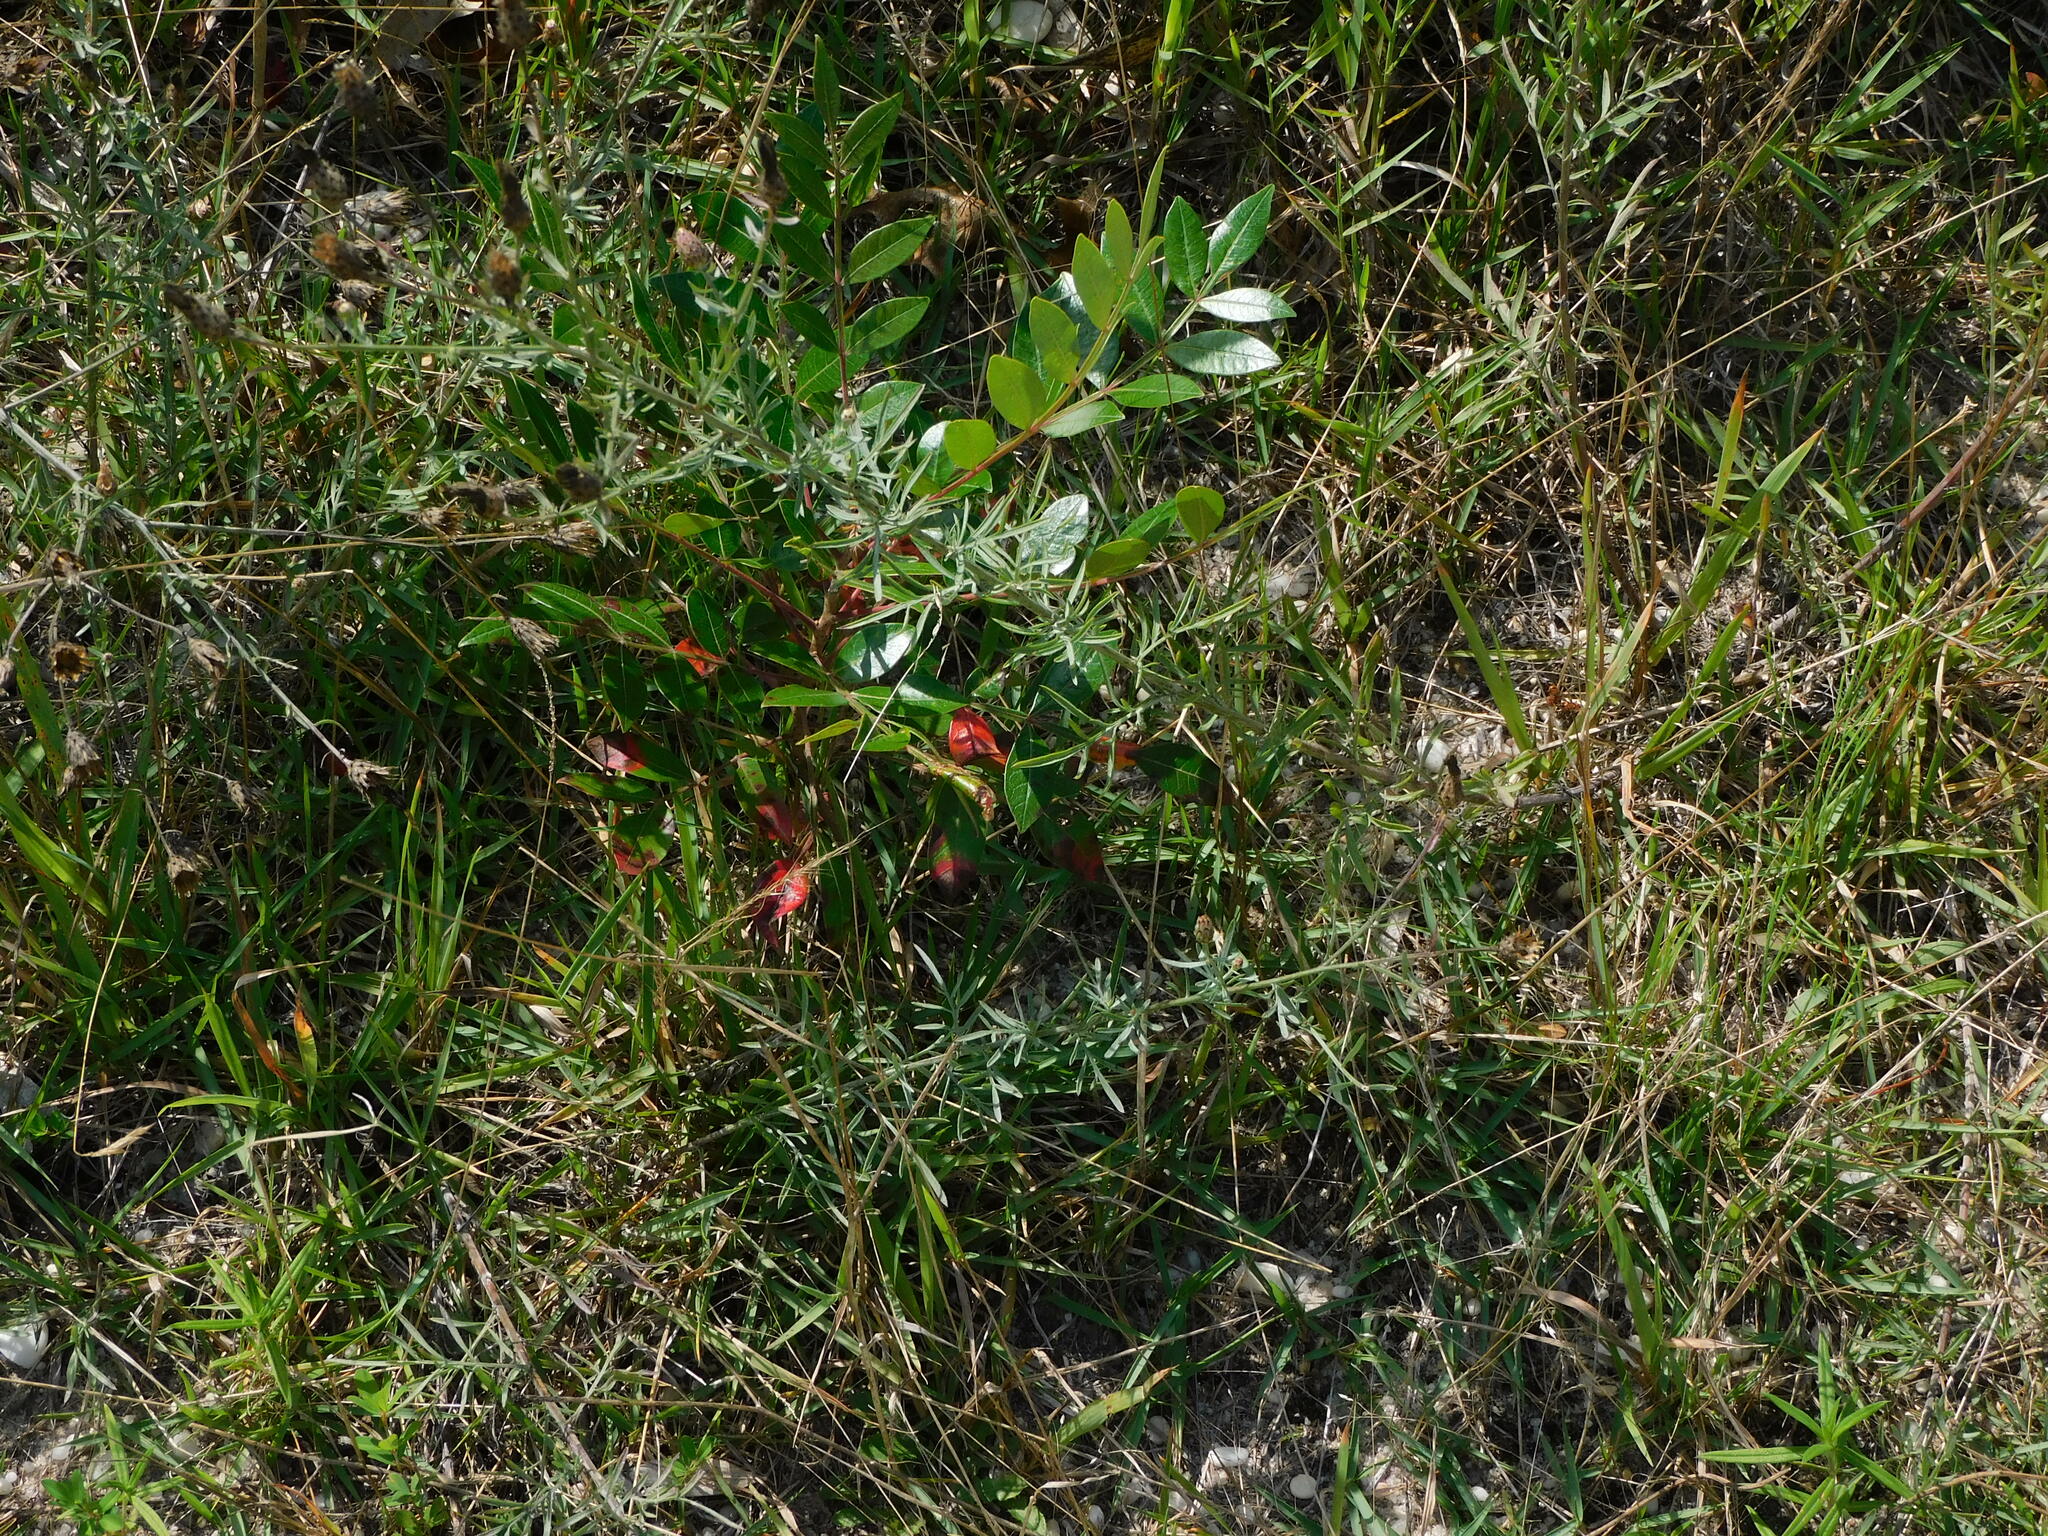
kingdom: Plantae
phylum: Tracheophyta
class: Magnoliopsida
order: Sapindales
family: Anacardiaceae
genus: Rhus
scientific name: Rhus copallina
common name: Shining sumac
